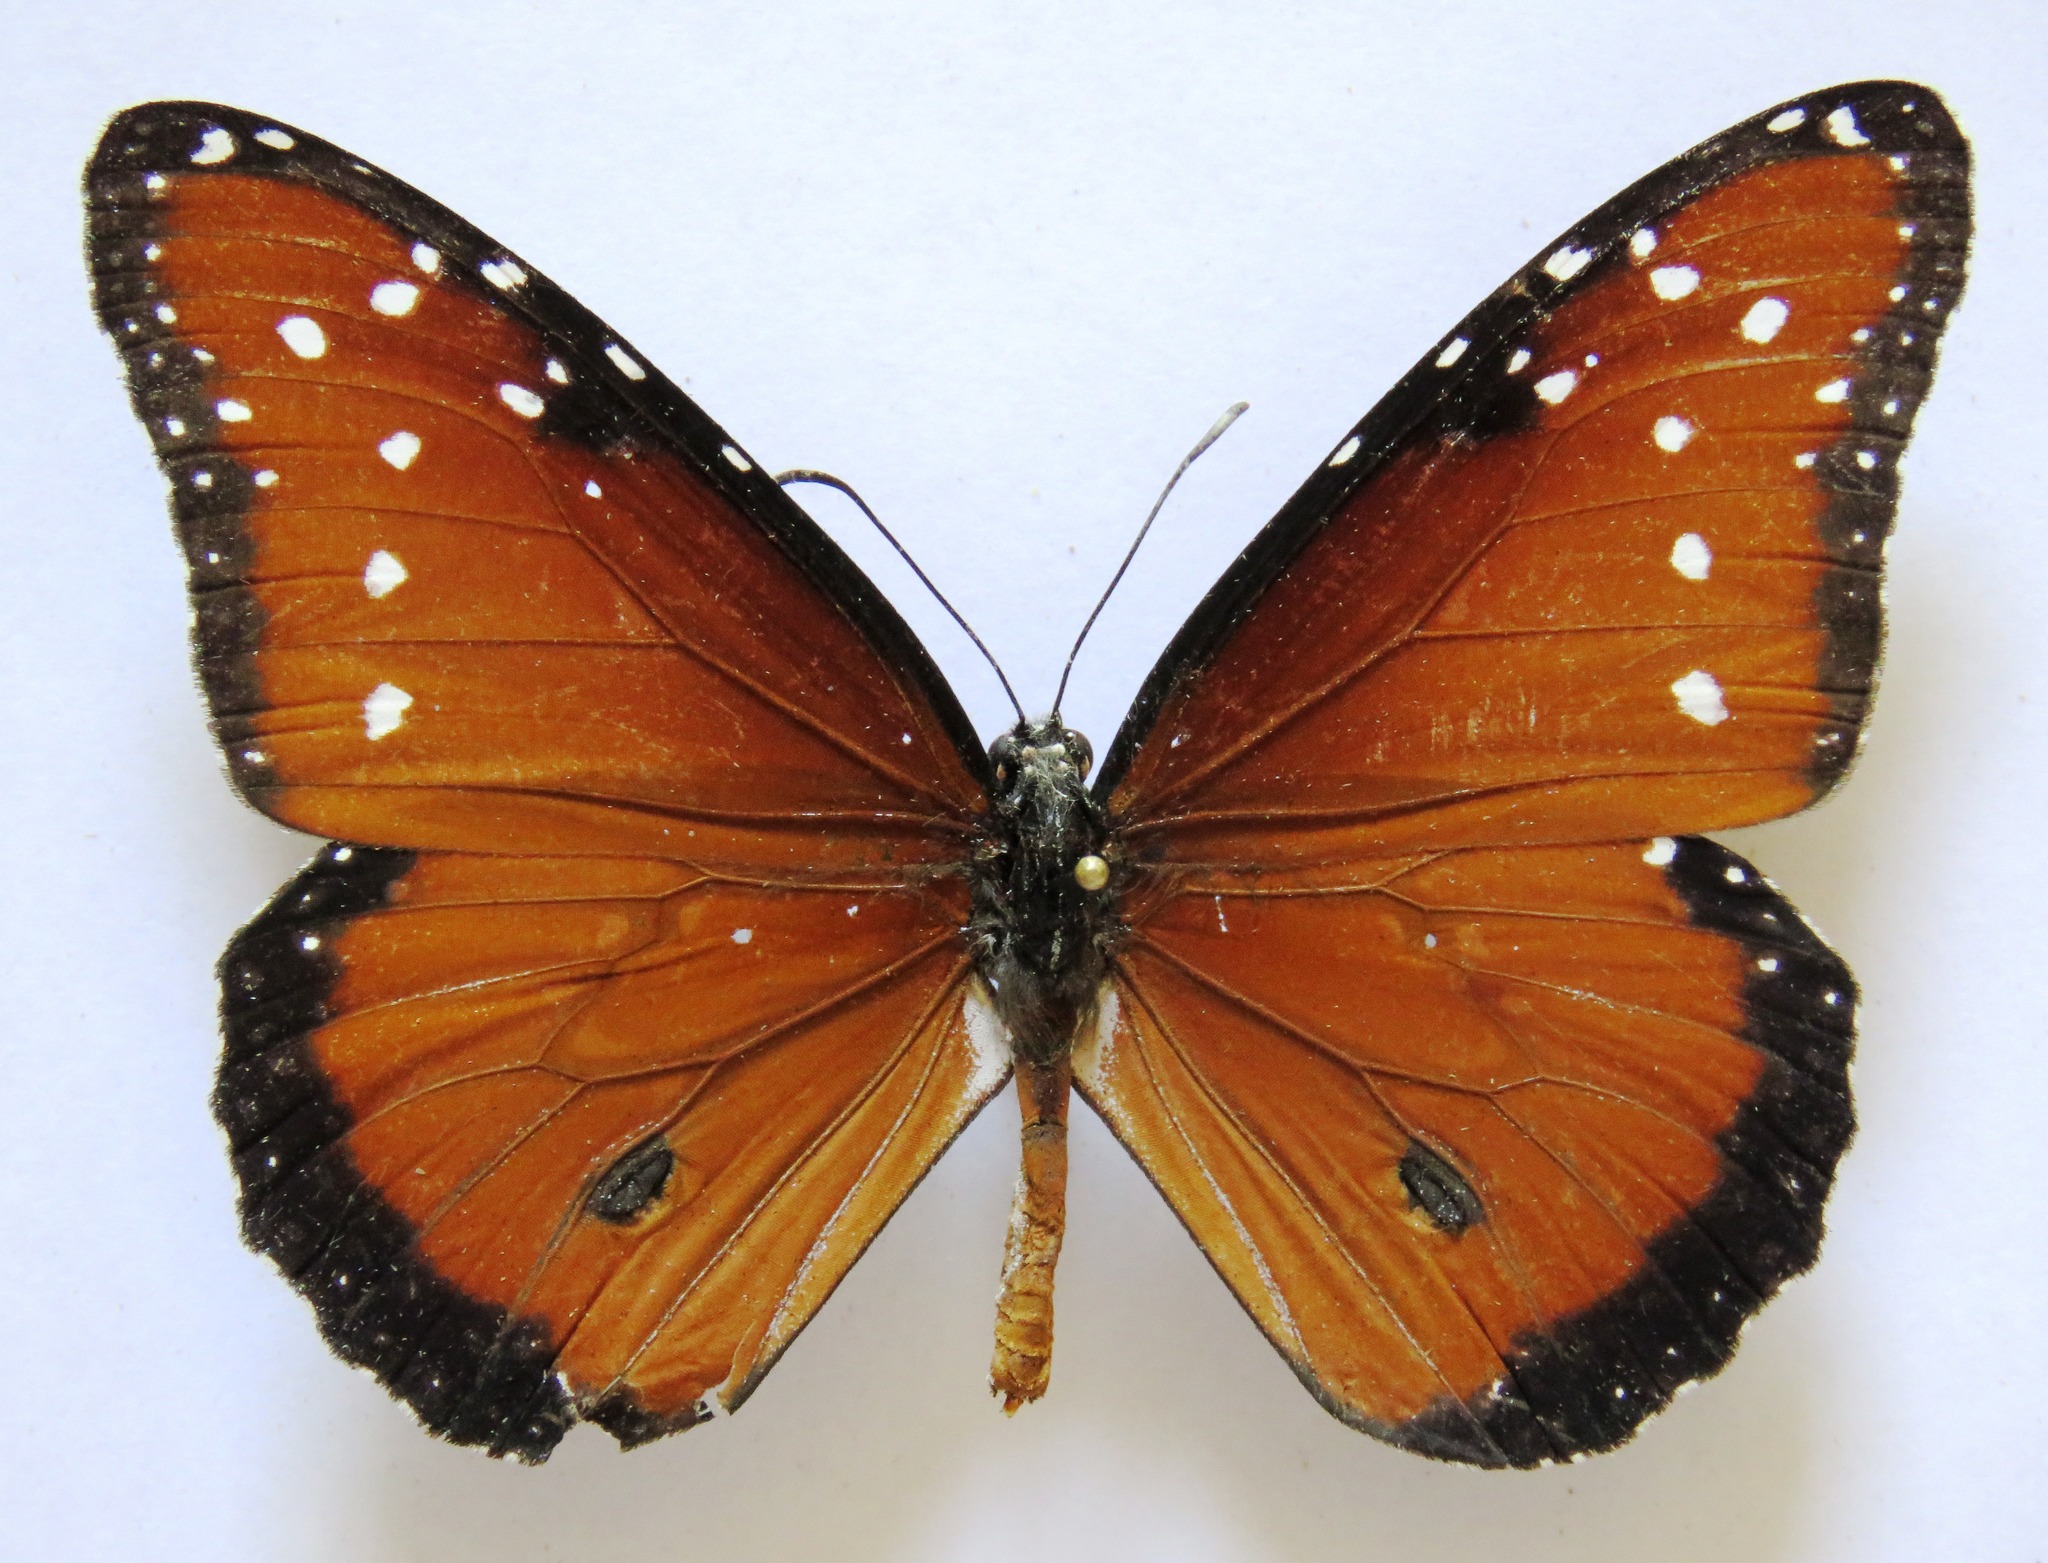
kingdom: Animalia
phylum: Arthropoda
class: Insecta
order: Lepidoptera
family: Nymphalidae
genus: Danaus
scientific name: Danaus gilippus
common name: Queen
